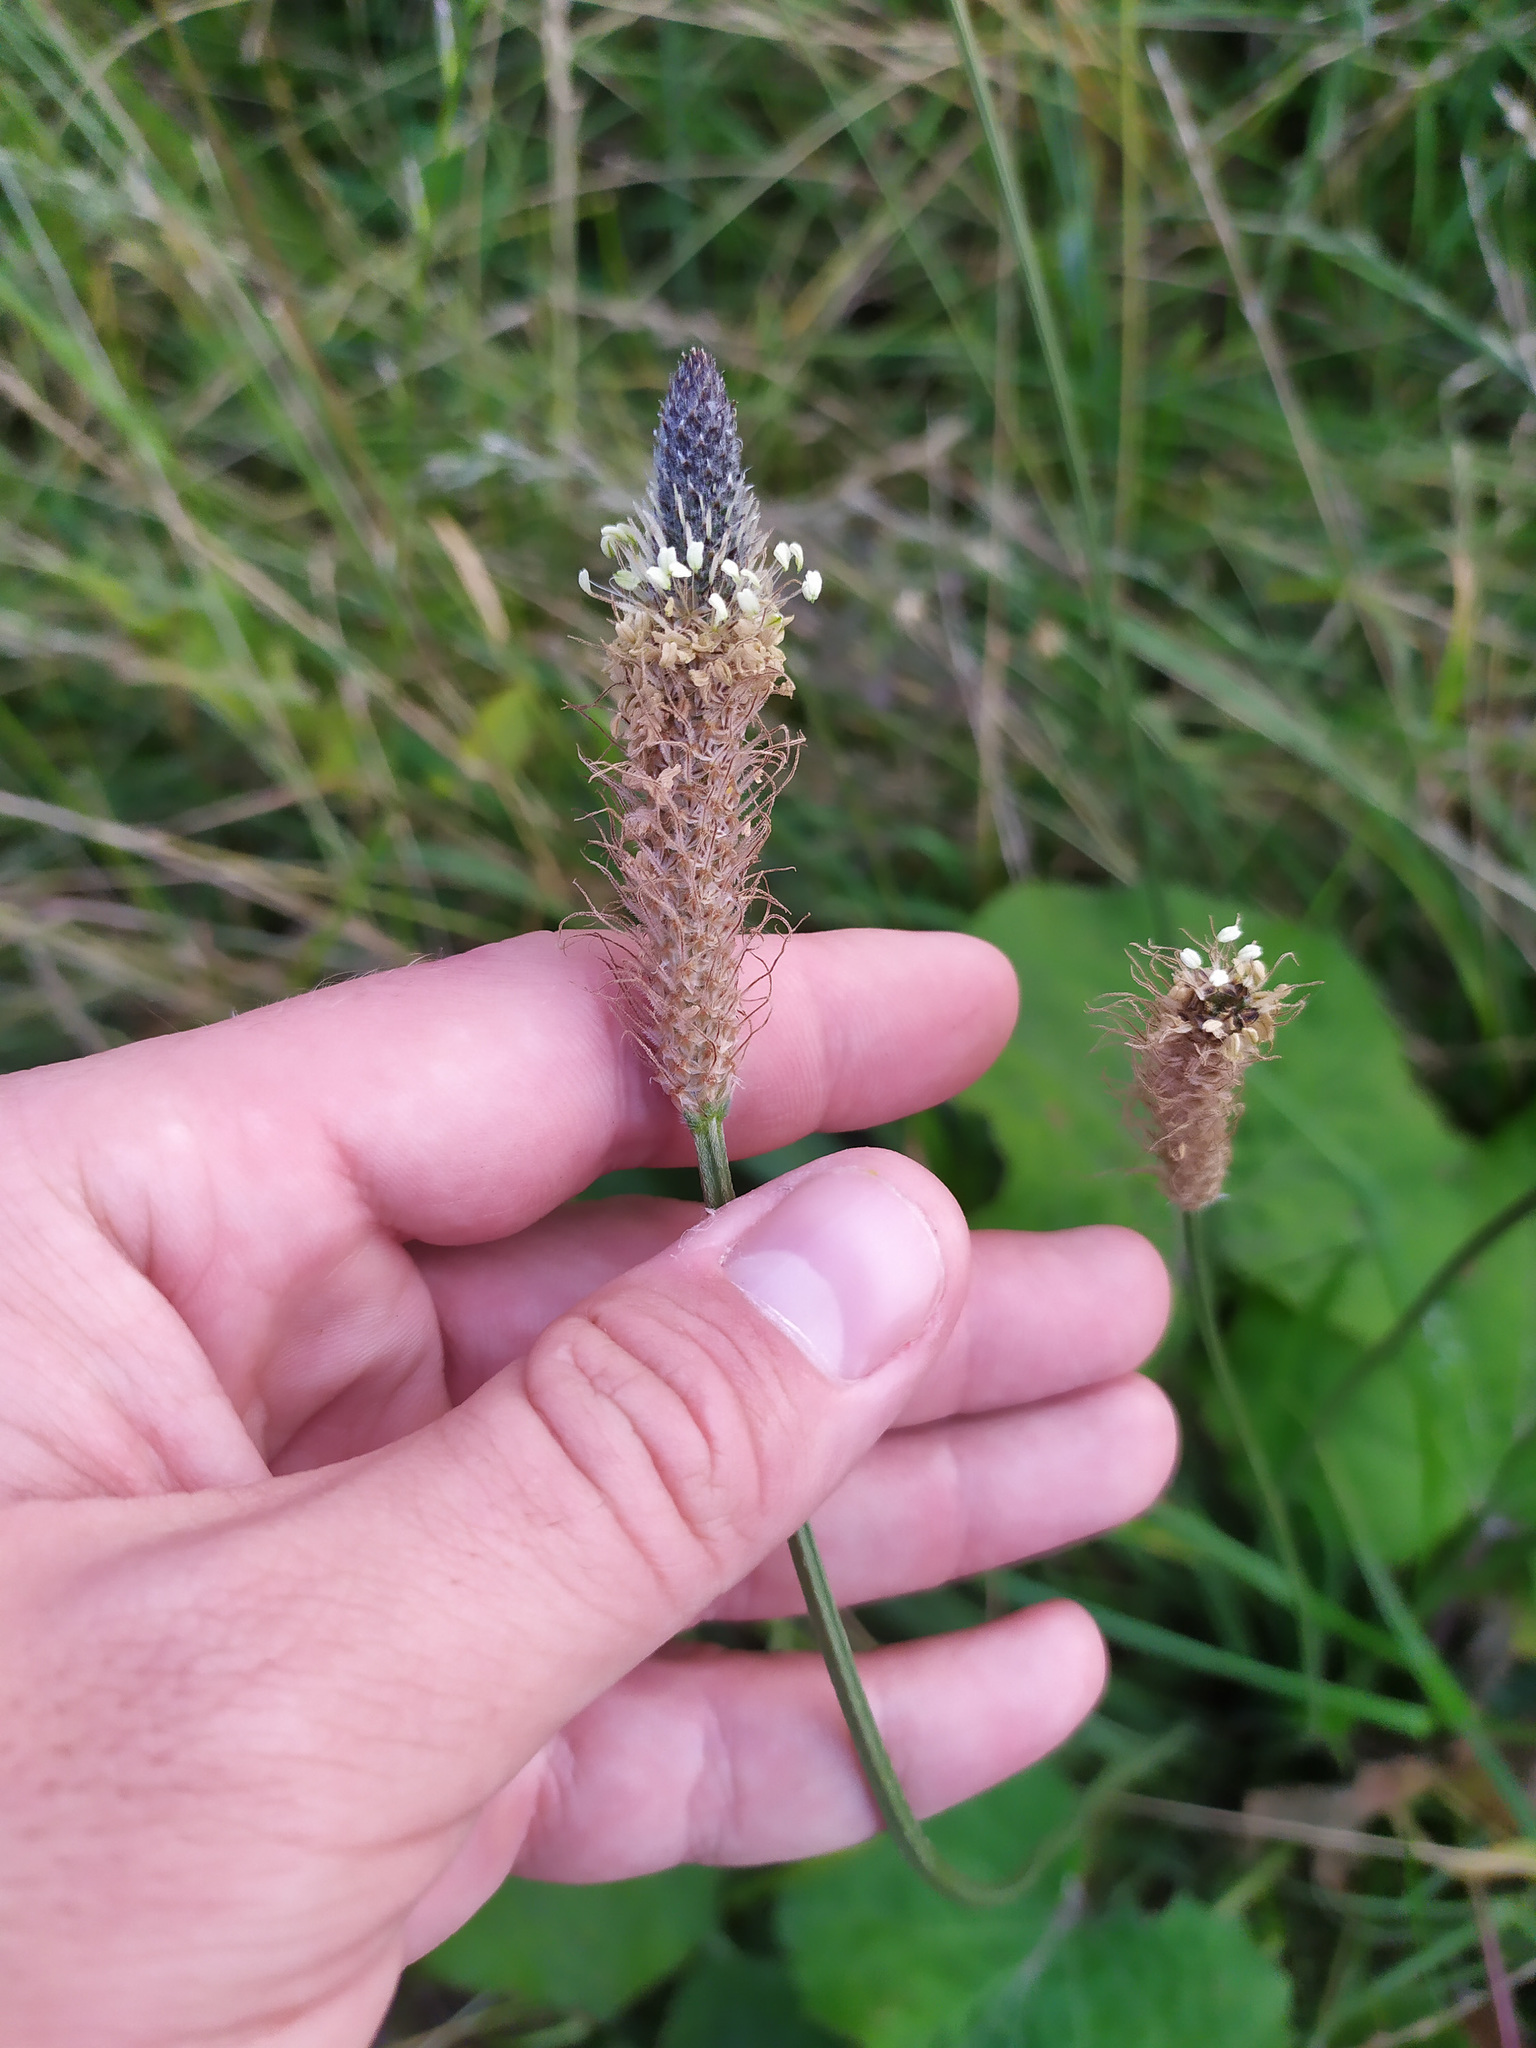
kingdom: Plantae
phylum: Tracheophyta
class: Magnoliopsida
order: Lamiales
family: Plantaginaceae
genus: Plantago
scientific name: Plantago lanceolata
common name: Ribwort plantain
